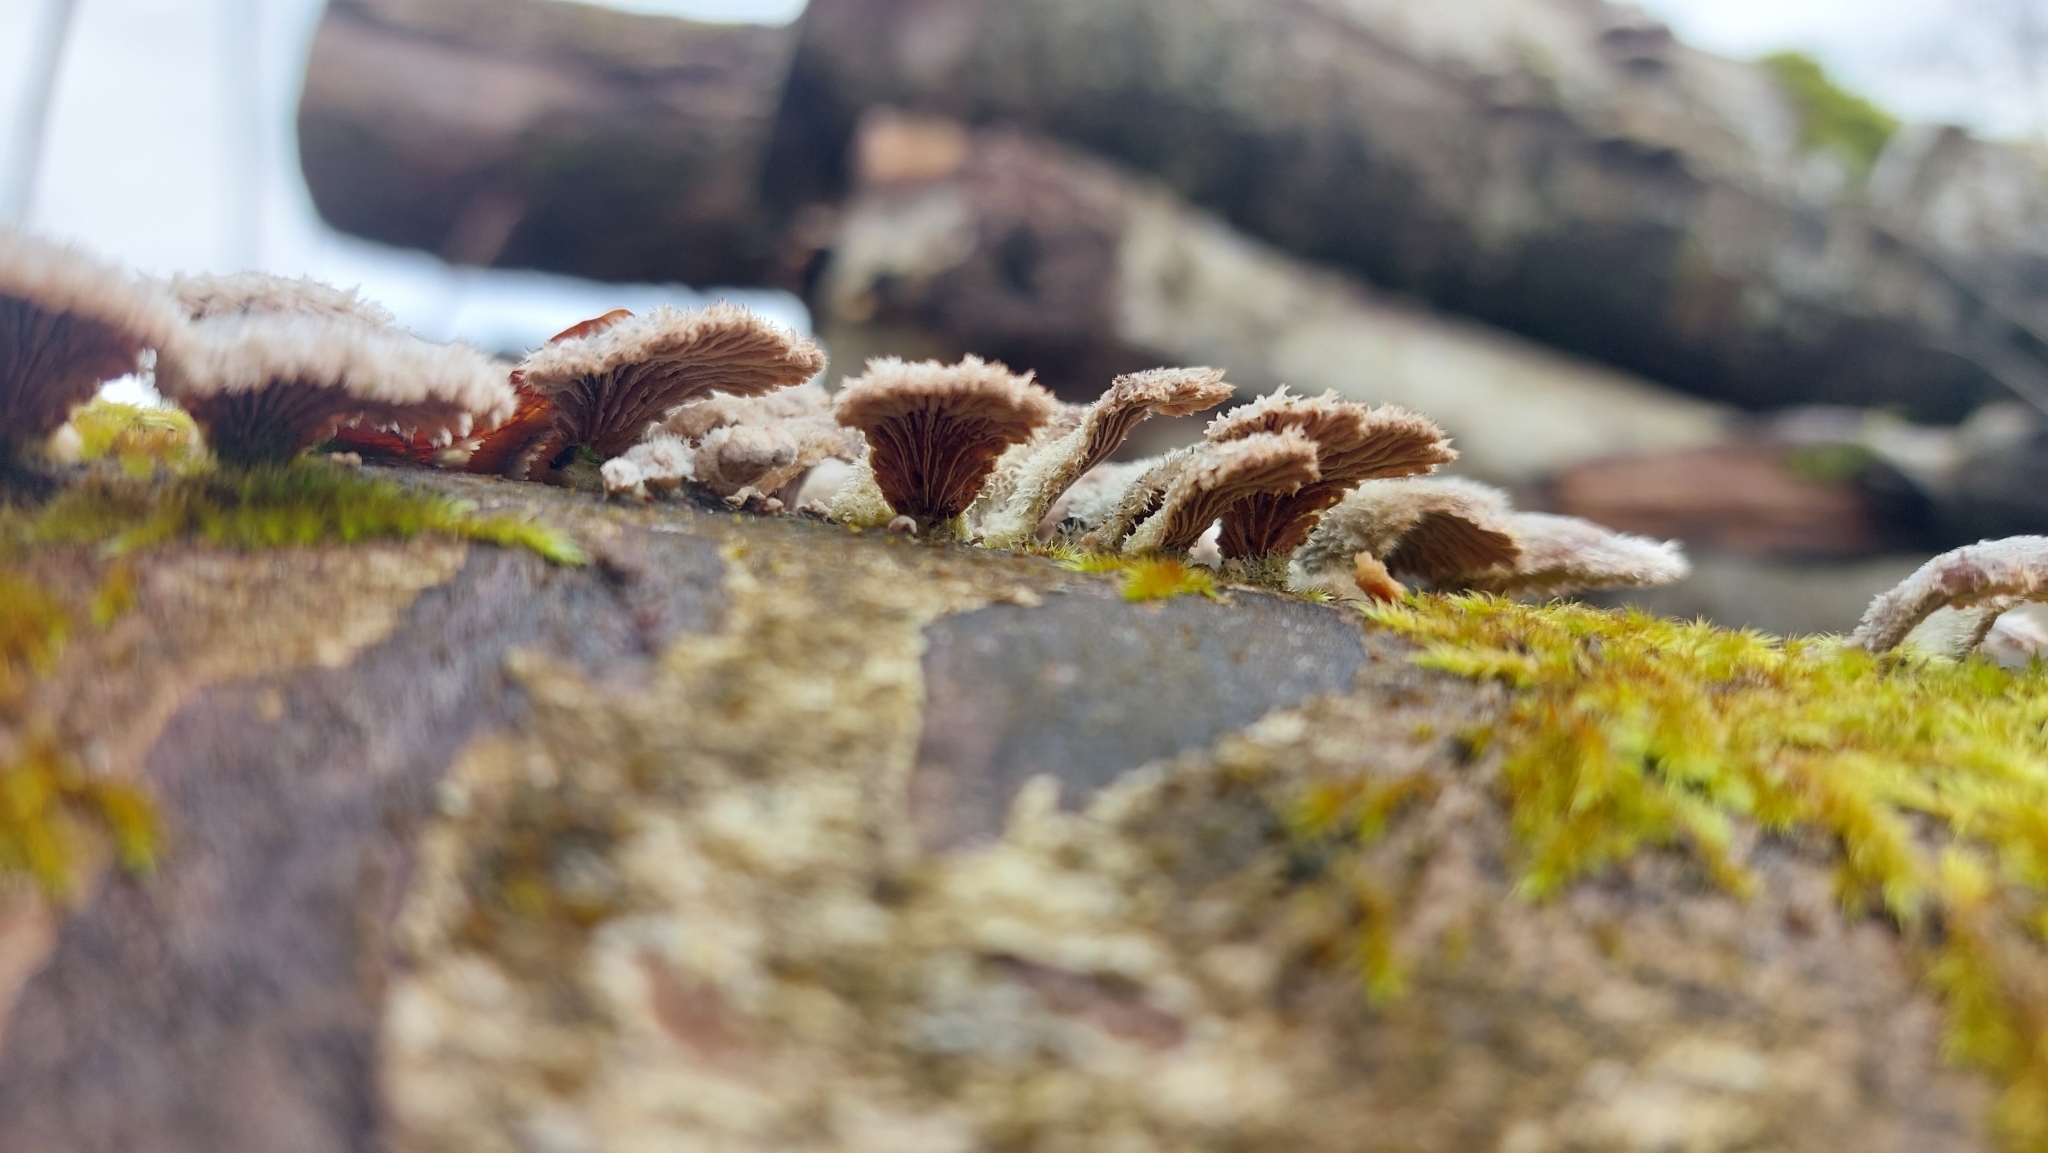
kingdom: Fungi
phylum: Basidiomycota
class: Agaricomycetes
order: Agaricales
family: Schizophyllaceae
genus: Schizophyllum
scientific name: Schizophyllum commune
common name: Common porecrust
